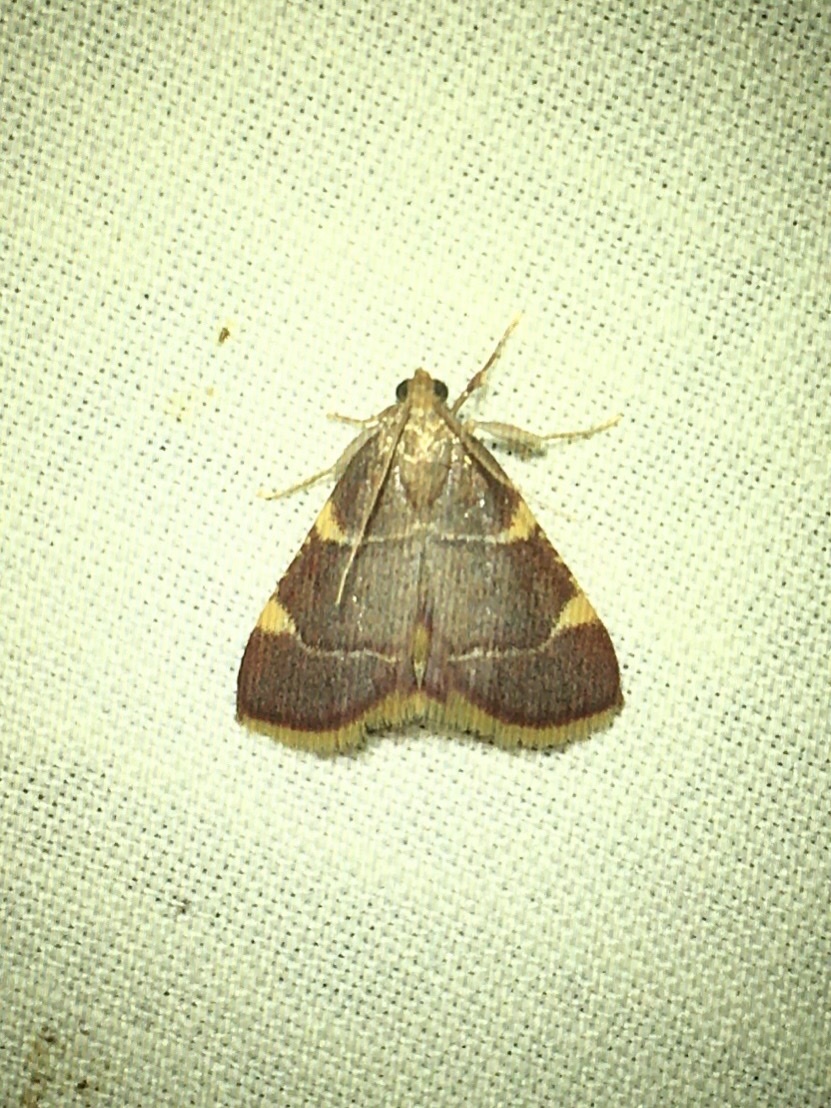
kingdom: Animalia
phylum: Arthropoda
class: Insecta
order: Lepidoptera
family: Pyralidae
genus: Hypsopygia
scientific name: Hypsopygia olinalis
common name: Yellow-fringed dolichomia moth
